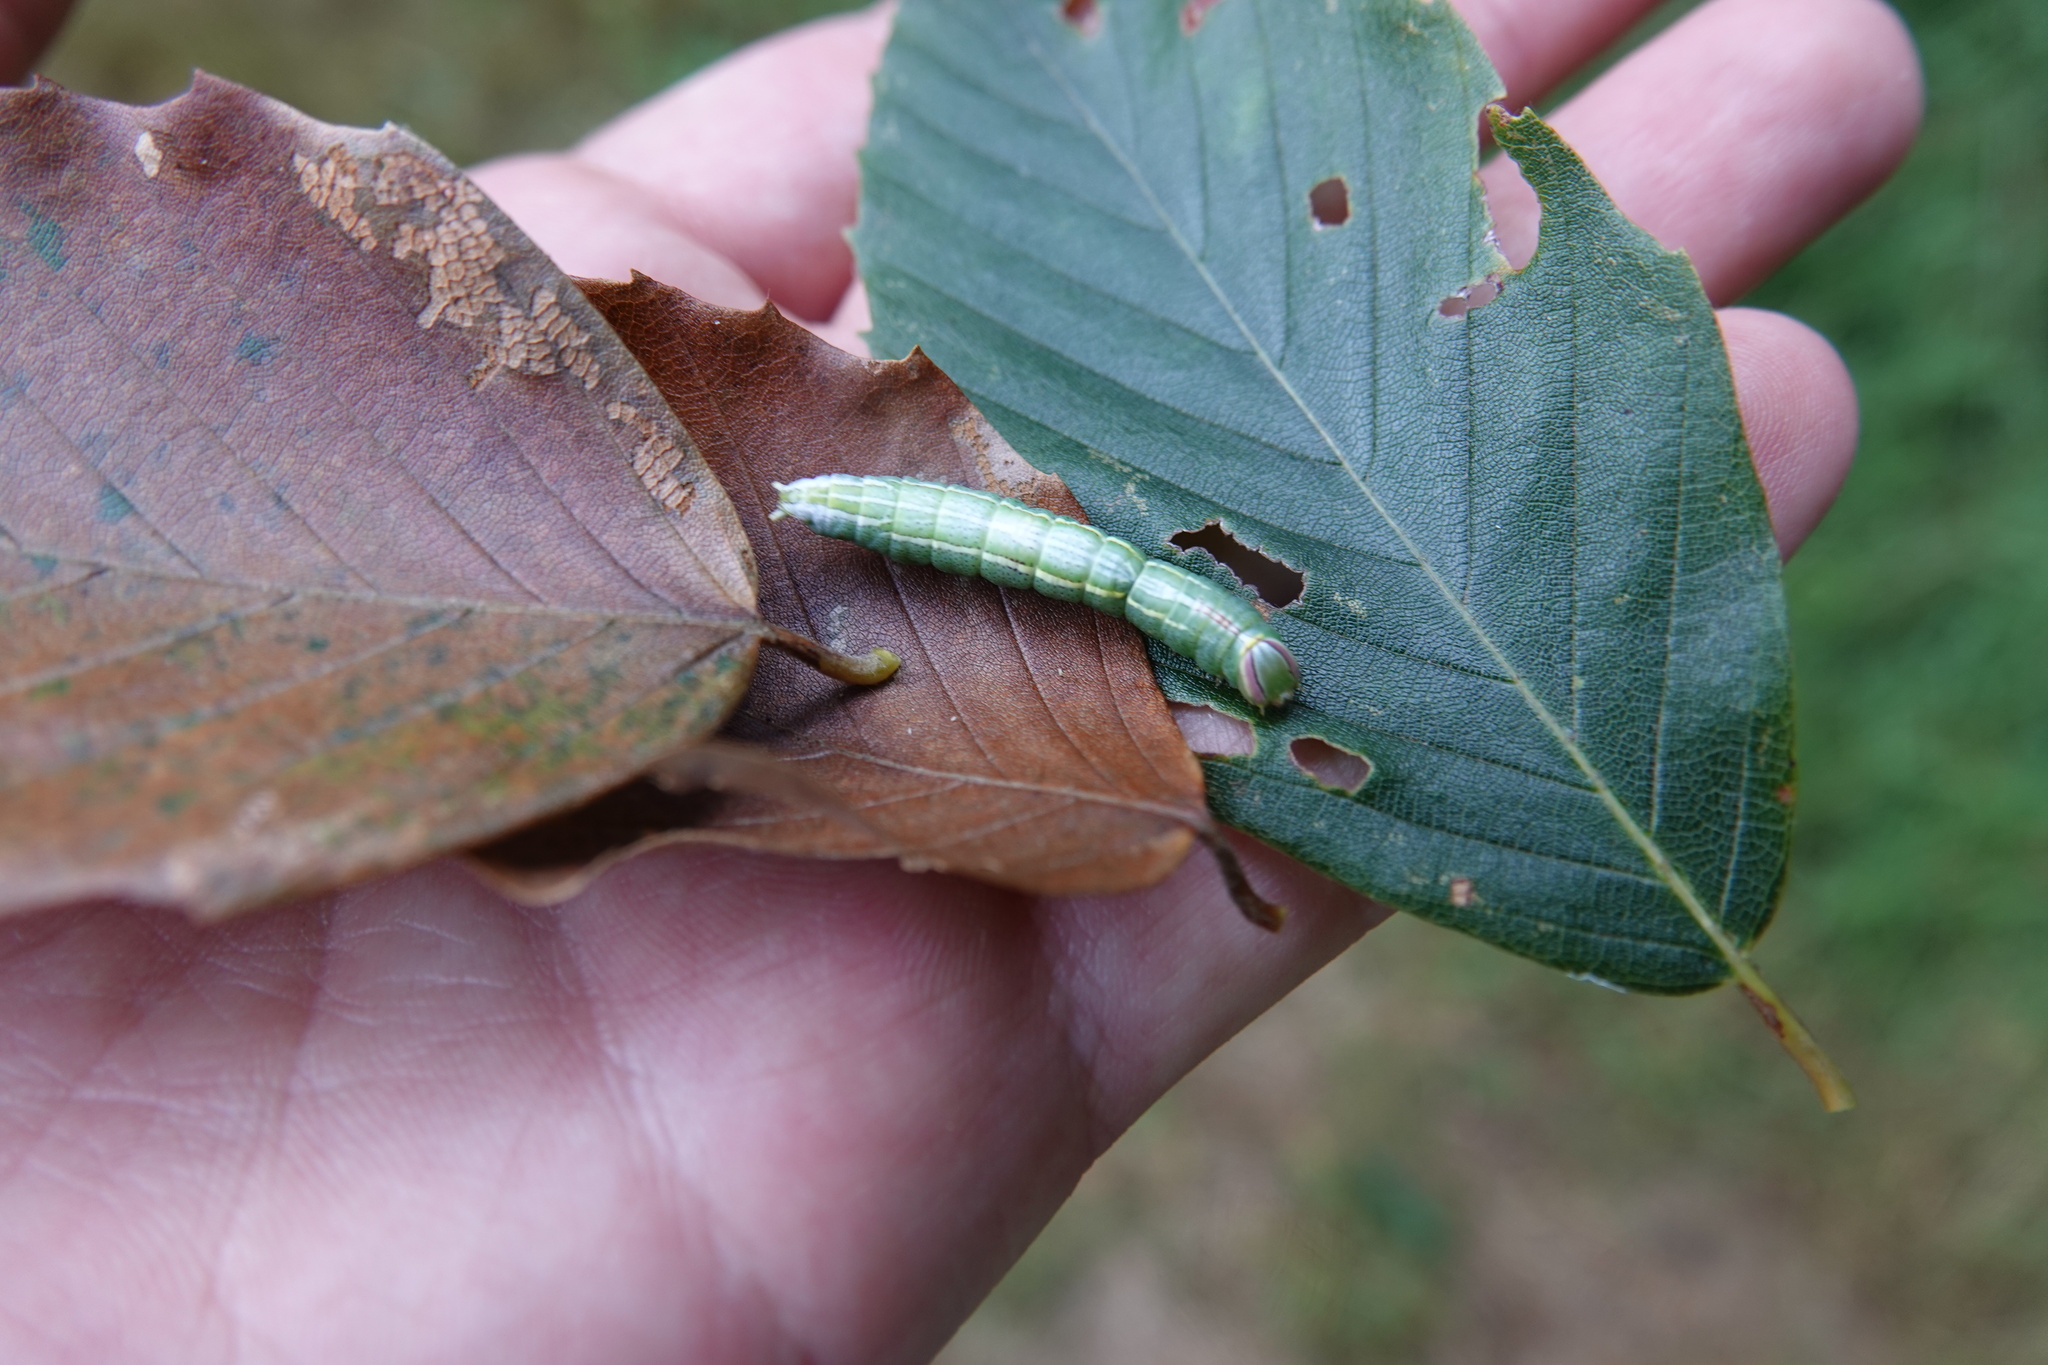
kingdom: Animalia
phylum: Arthropoda
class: Insecta
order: Lepidoptera
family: Notodontidae
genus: Disphragis
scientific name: Disphragis Cecrita guttivitta
